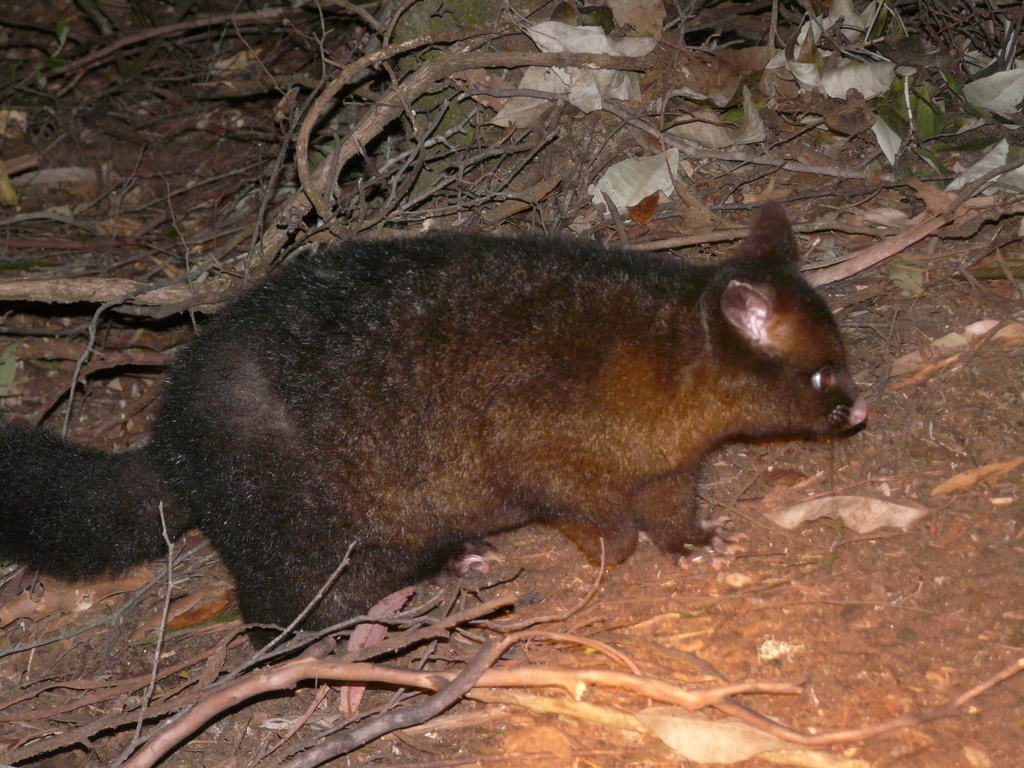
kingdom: Animalia
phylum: Chordata
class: Mammalia
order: Diprotodontia
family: Phalangeridae
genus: Trichosurus
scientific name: Trichosurus vulpecula
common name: Common brushtail
